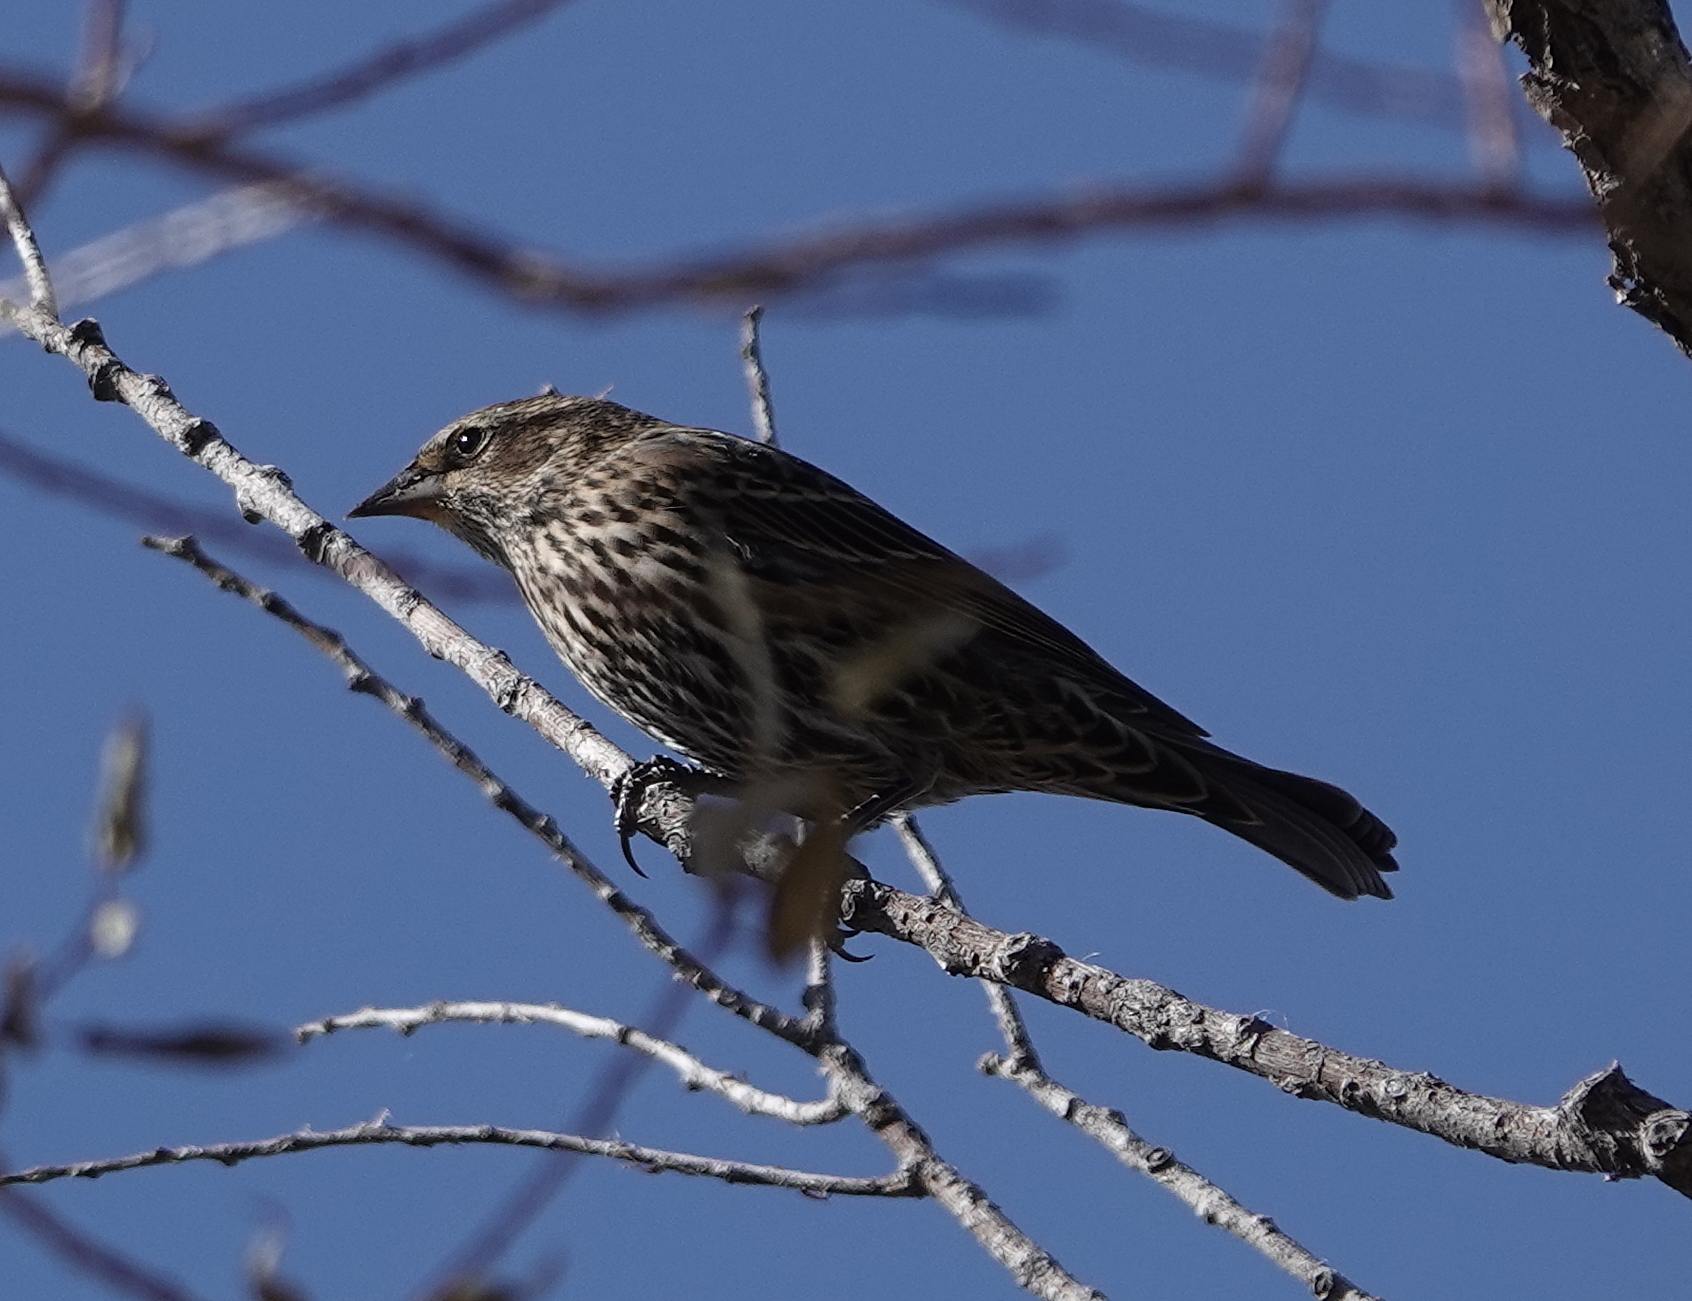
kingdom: Animalia
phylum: Chordata
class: Aves
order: Passeriformes
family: Icteridae
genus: Agelaius
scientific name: Agelaius phoeniceus
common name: Red-winged blackbird
